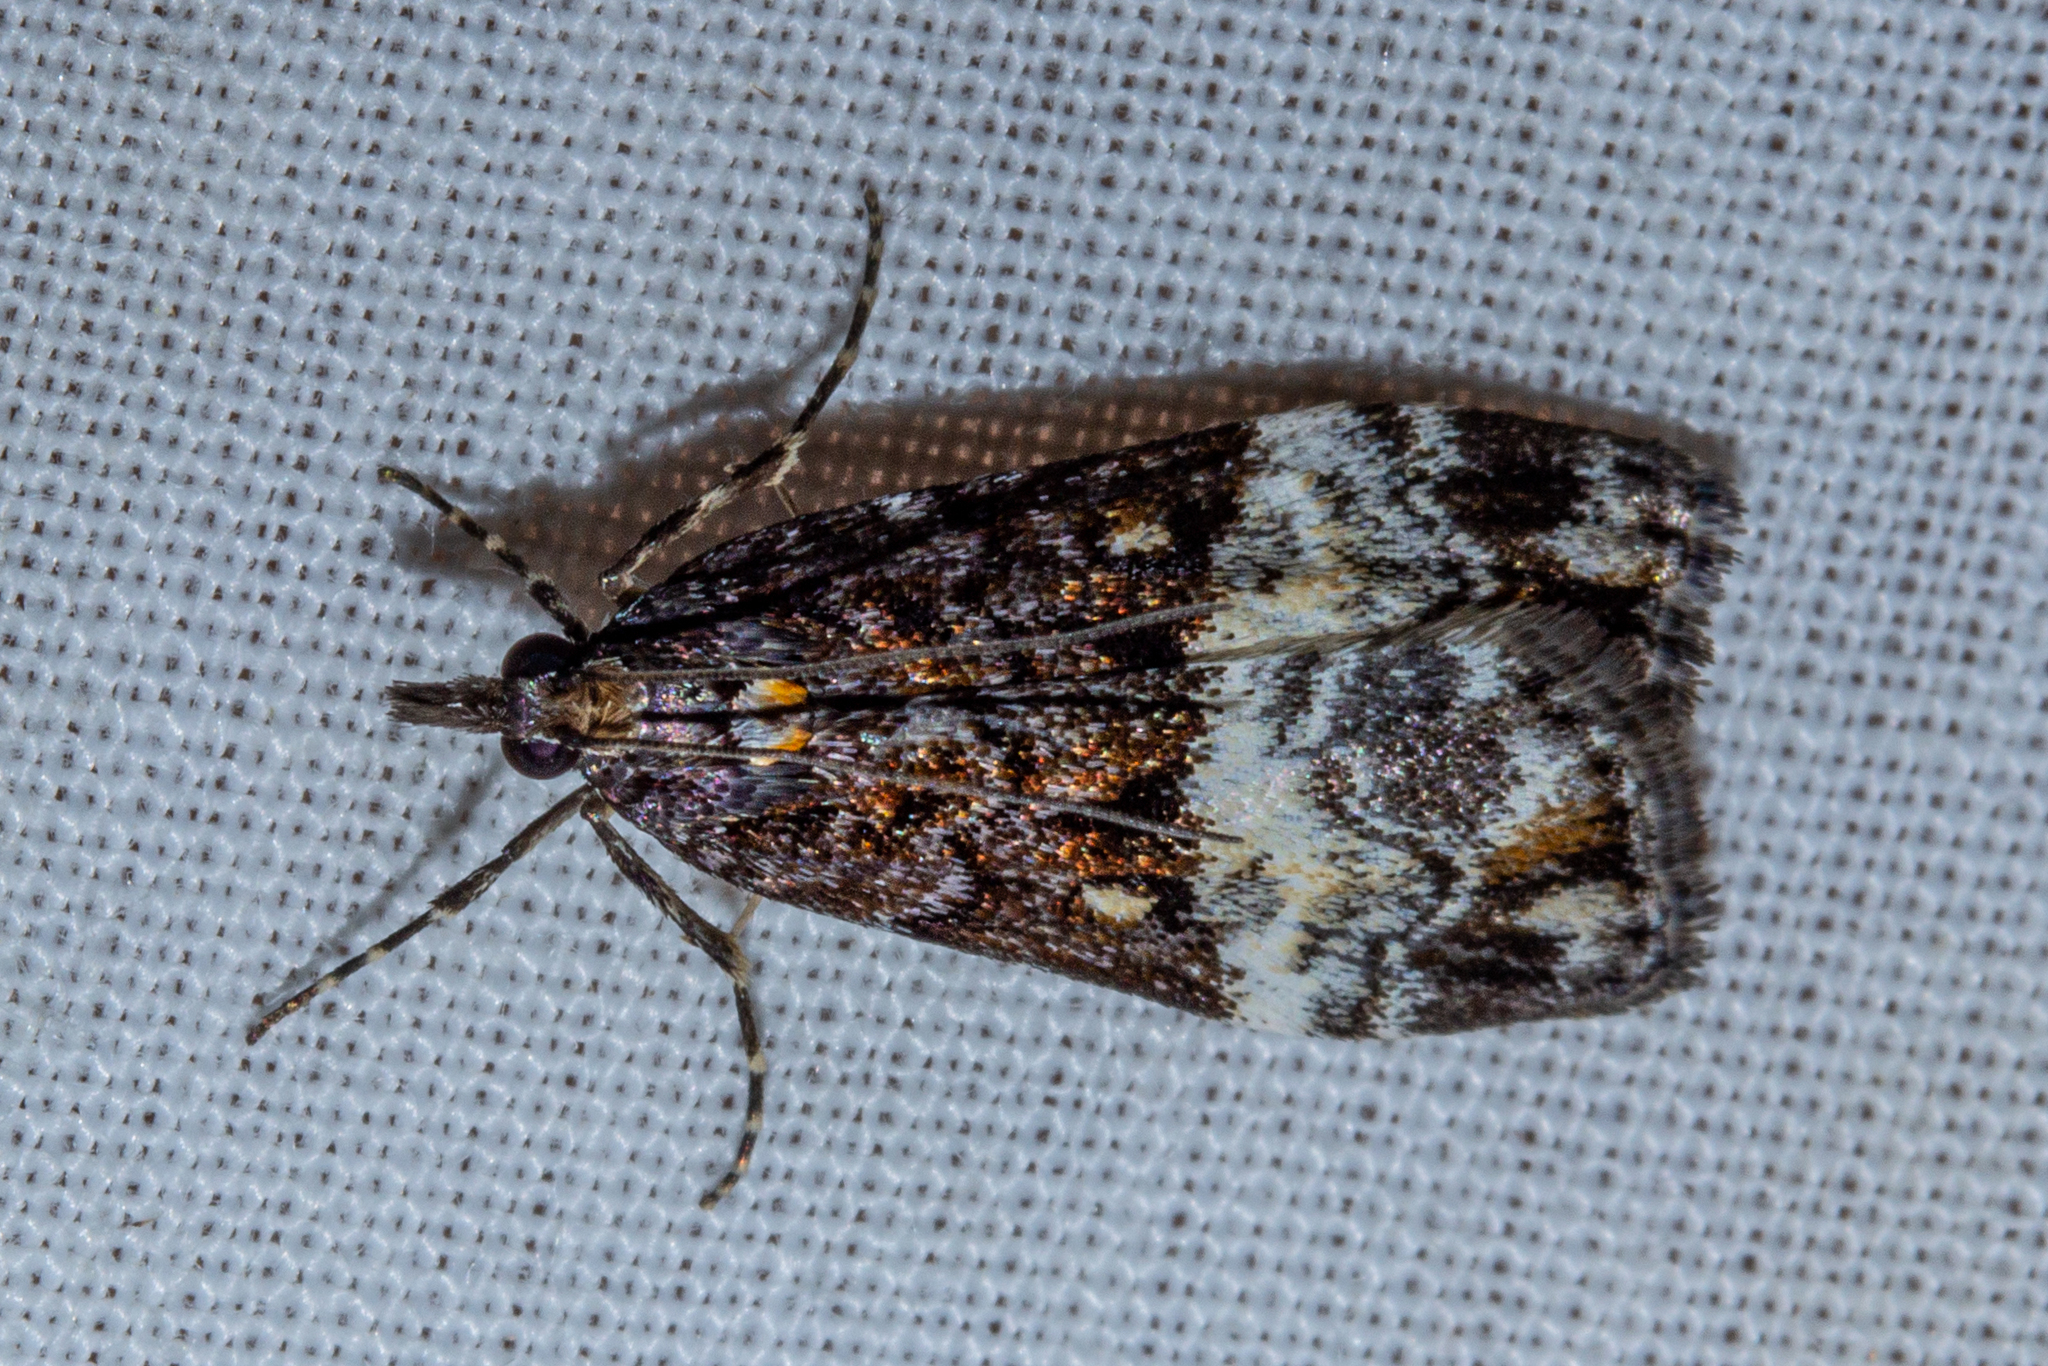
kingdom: Animalia
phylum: Arthropoda
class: Insecta
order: Lepidoptera
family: Crambidae
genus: Scoparia
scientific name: Scoparia minusculalis
